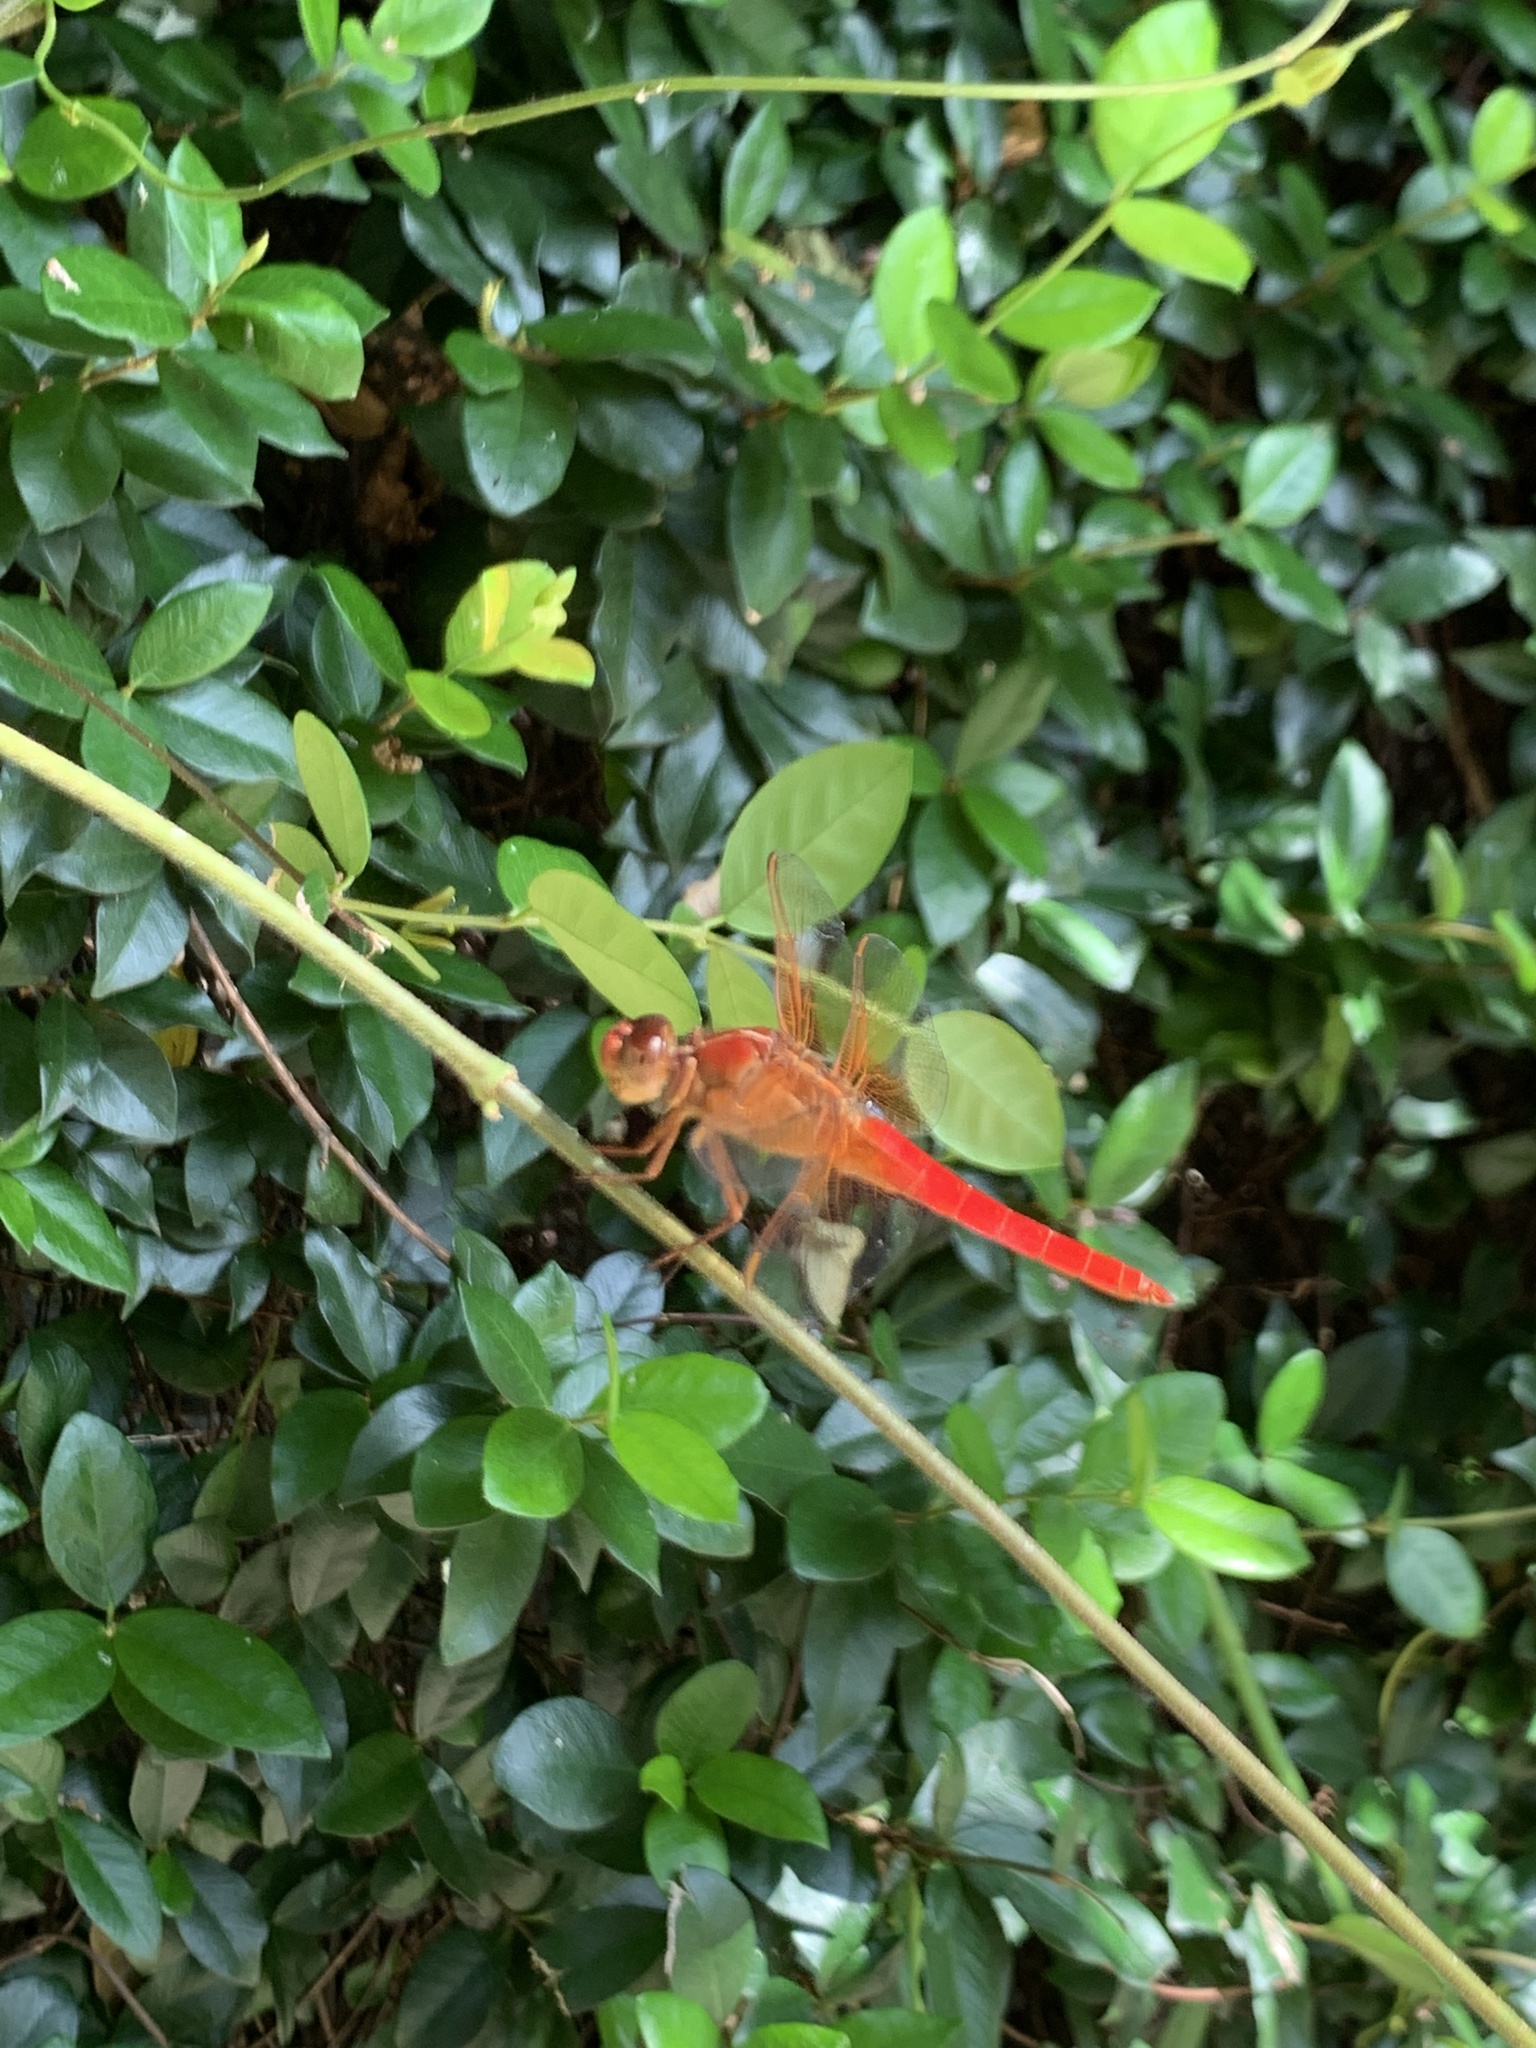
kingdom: Animalia
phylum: Arthropoda
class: Insecta
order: Odonata
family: Libellulidae
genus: Libellula
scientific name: Libellula croceipennis
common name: Neon skimmer
